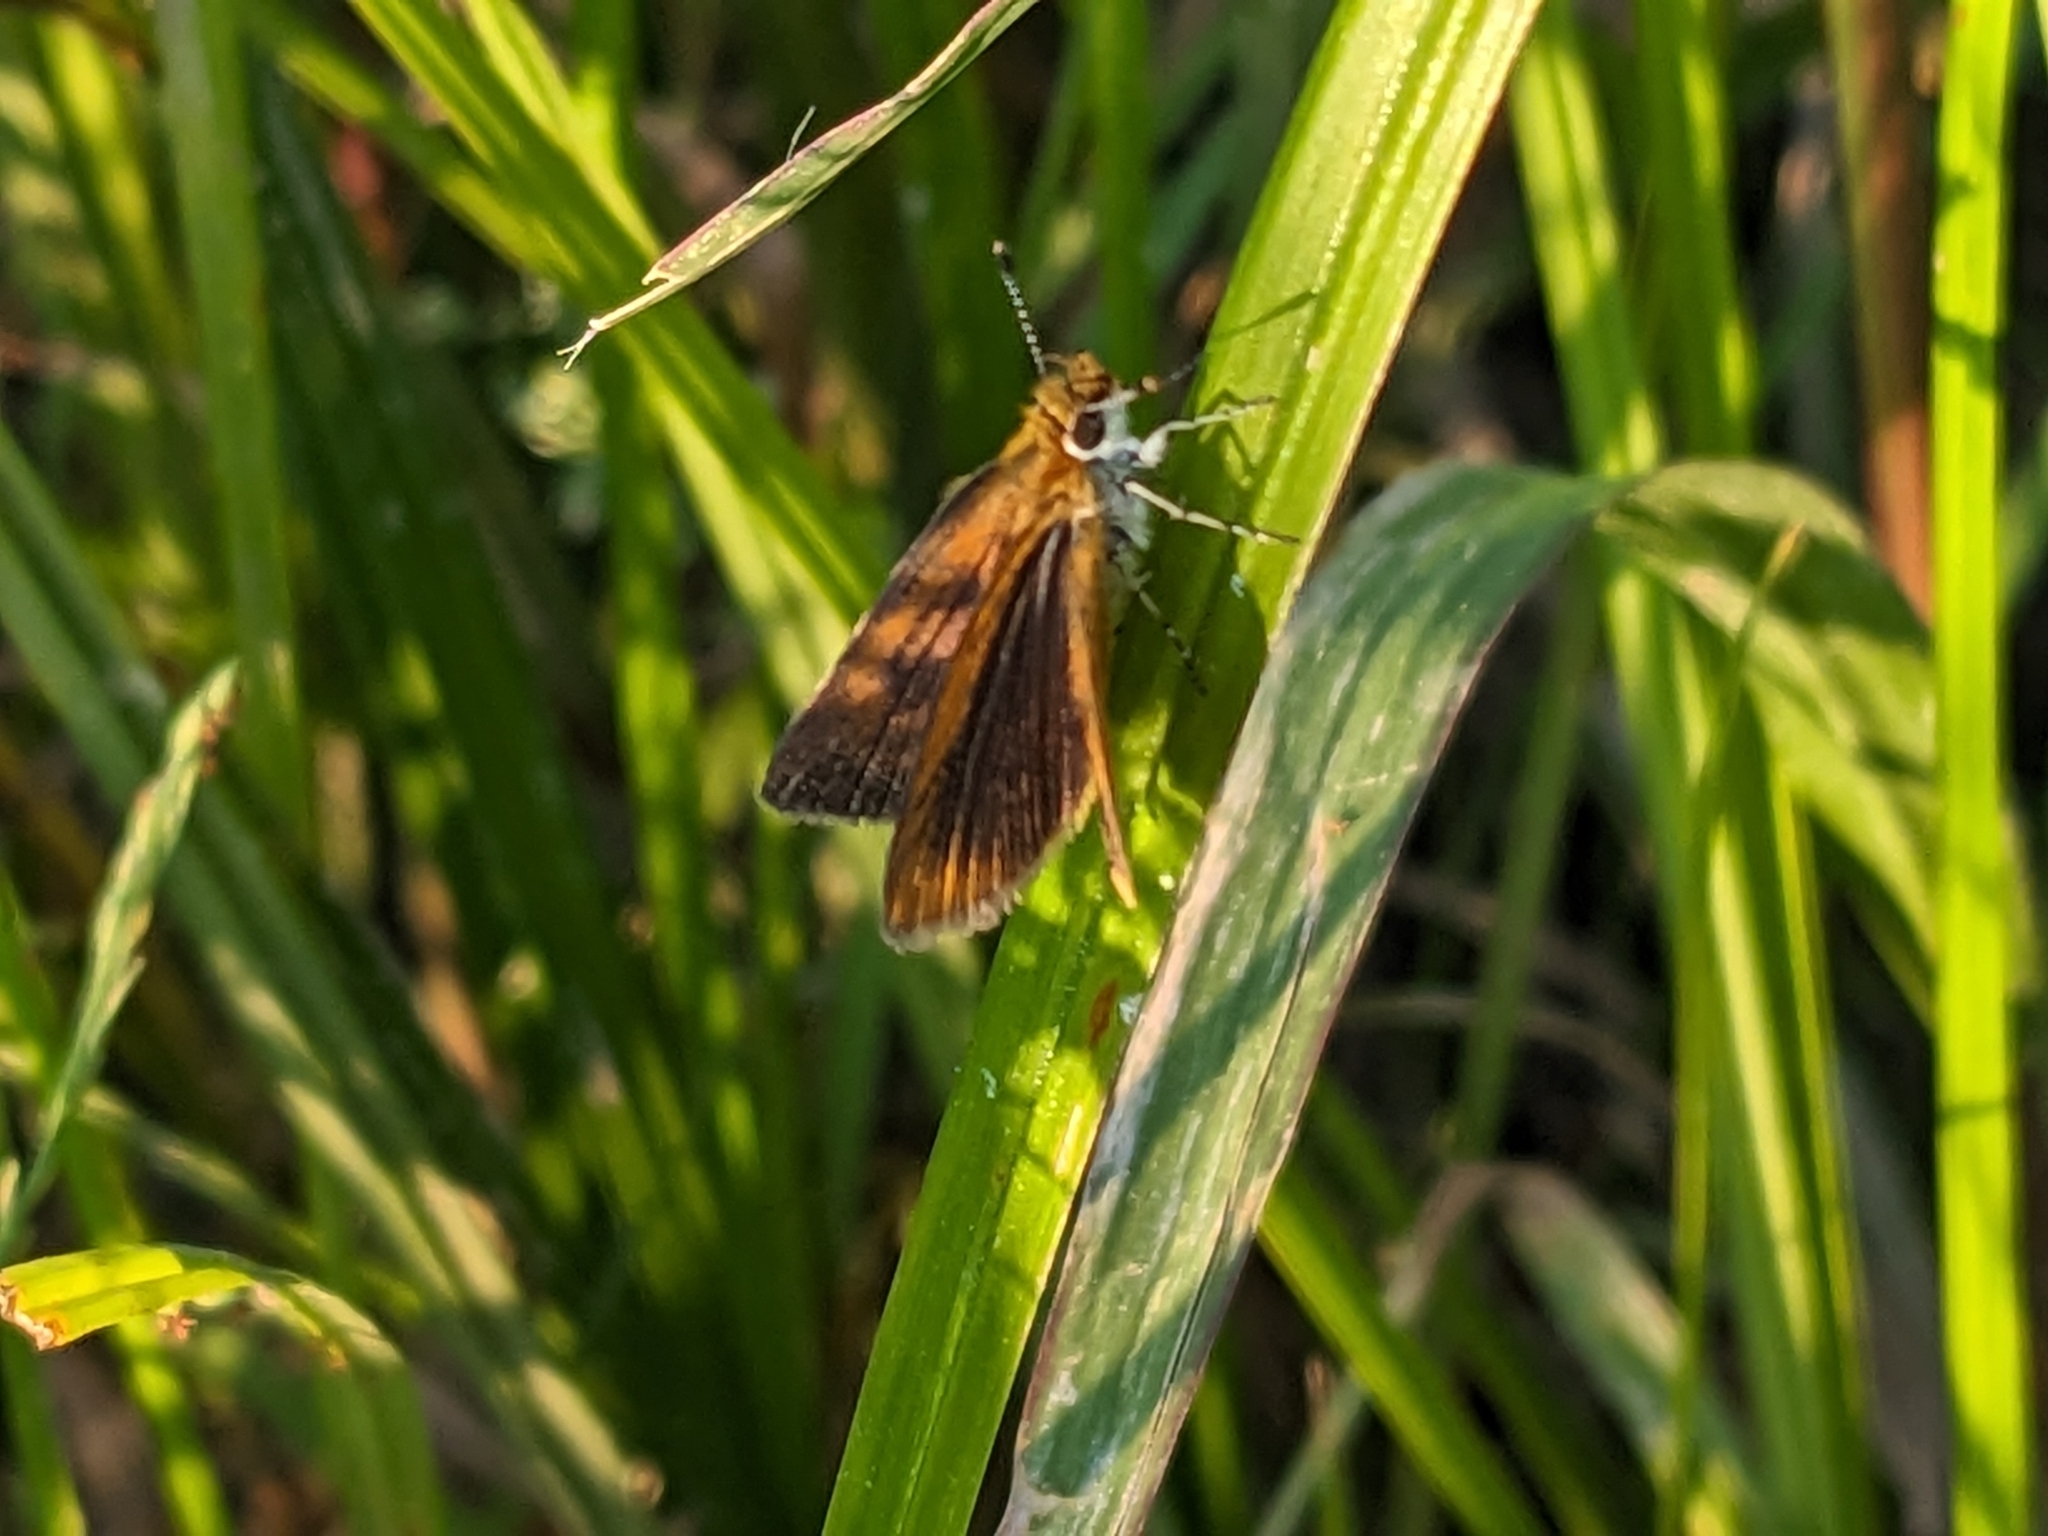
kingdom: Animalia
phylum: Arthropoda
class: Insecta
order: Lepidoptera
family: Hesperiidae
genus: Ancyloxypha
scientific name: Ancyloxypha numitor
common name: Least skipper
